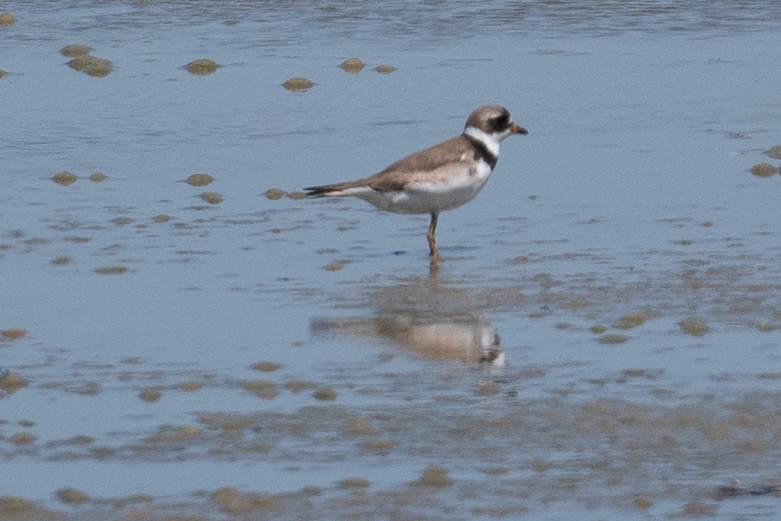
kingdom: Animalia
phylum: Chordata
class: Aves
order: Charadriiformes
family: Charadriidae
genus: Charadrius
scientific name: Charadrius semipalmatus
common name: Semipalmated plover
